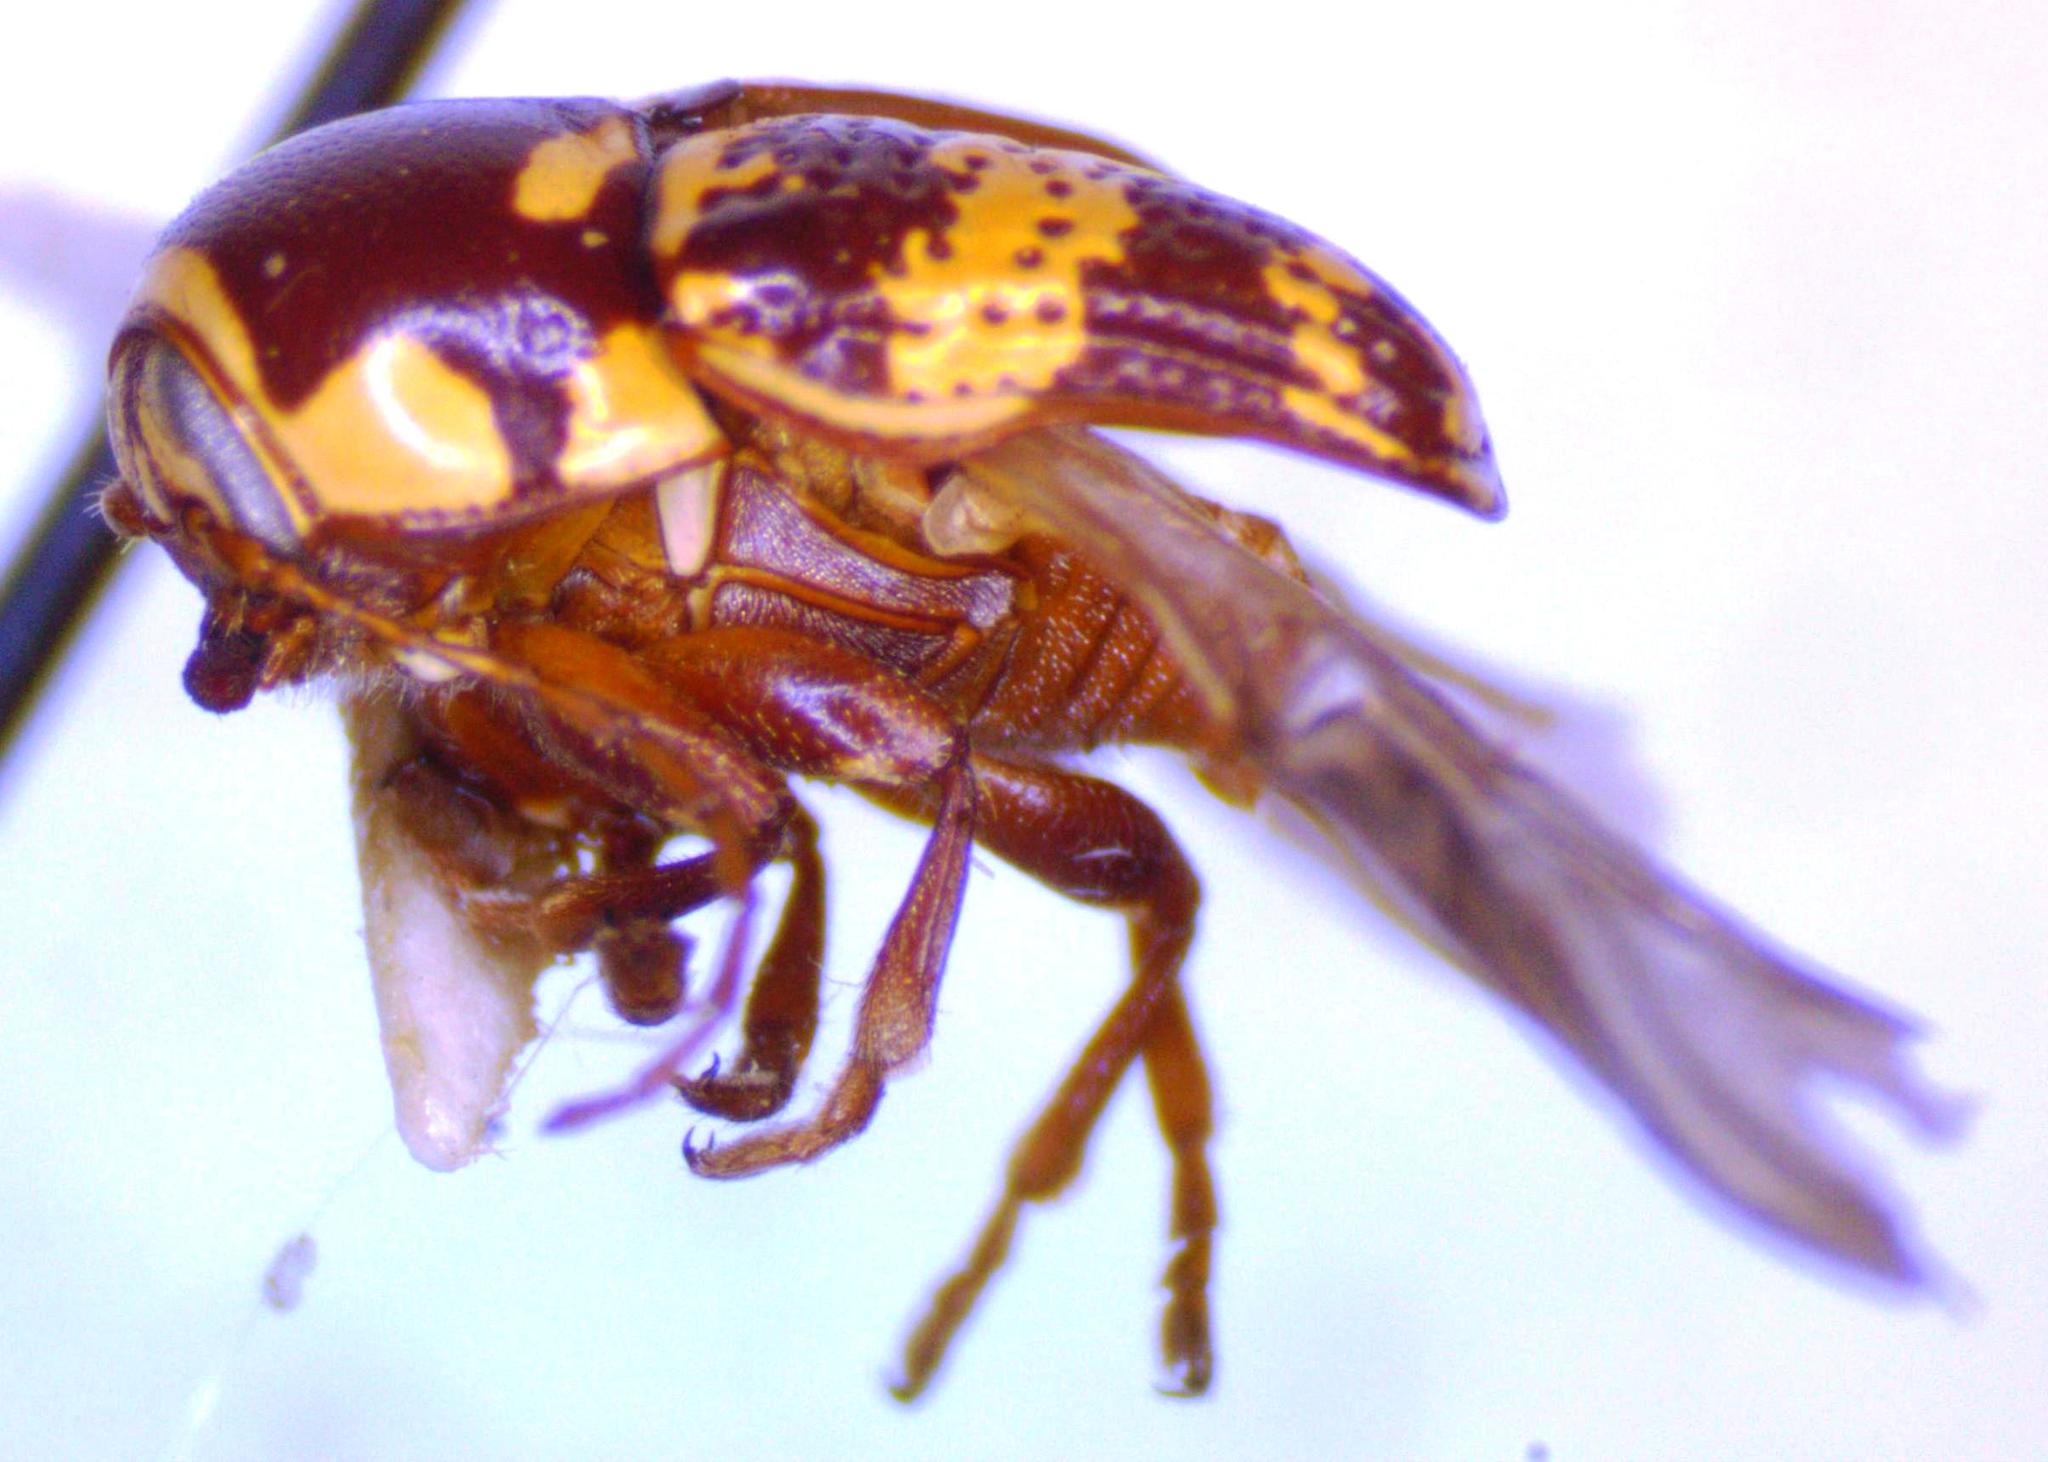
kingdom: Animalia
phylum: Arthropoda
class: Insecta
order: Coleoptera
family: Chrysomelidae
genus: Cryptocephalus
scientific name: Cryptocephalus irroratus
